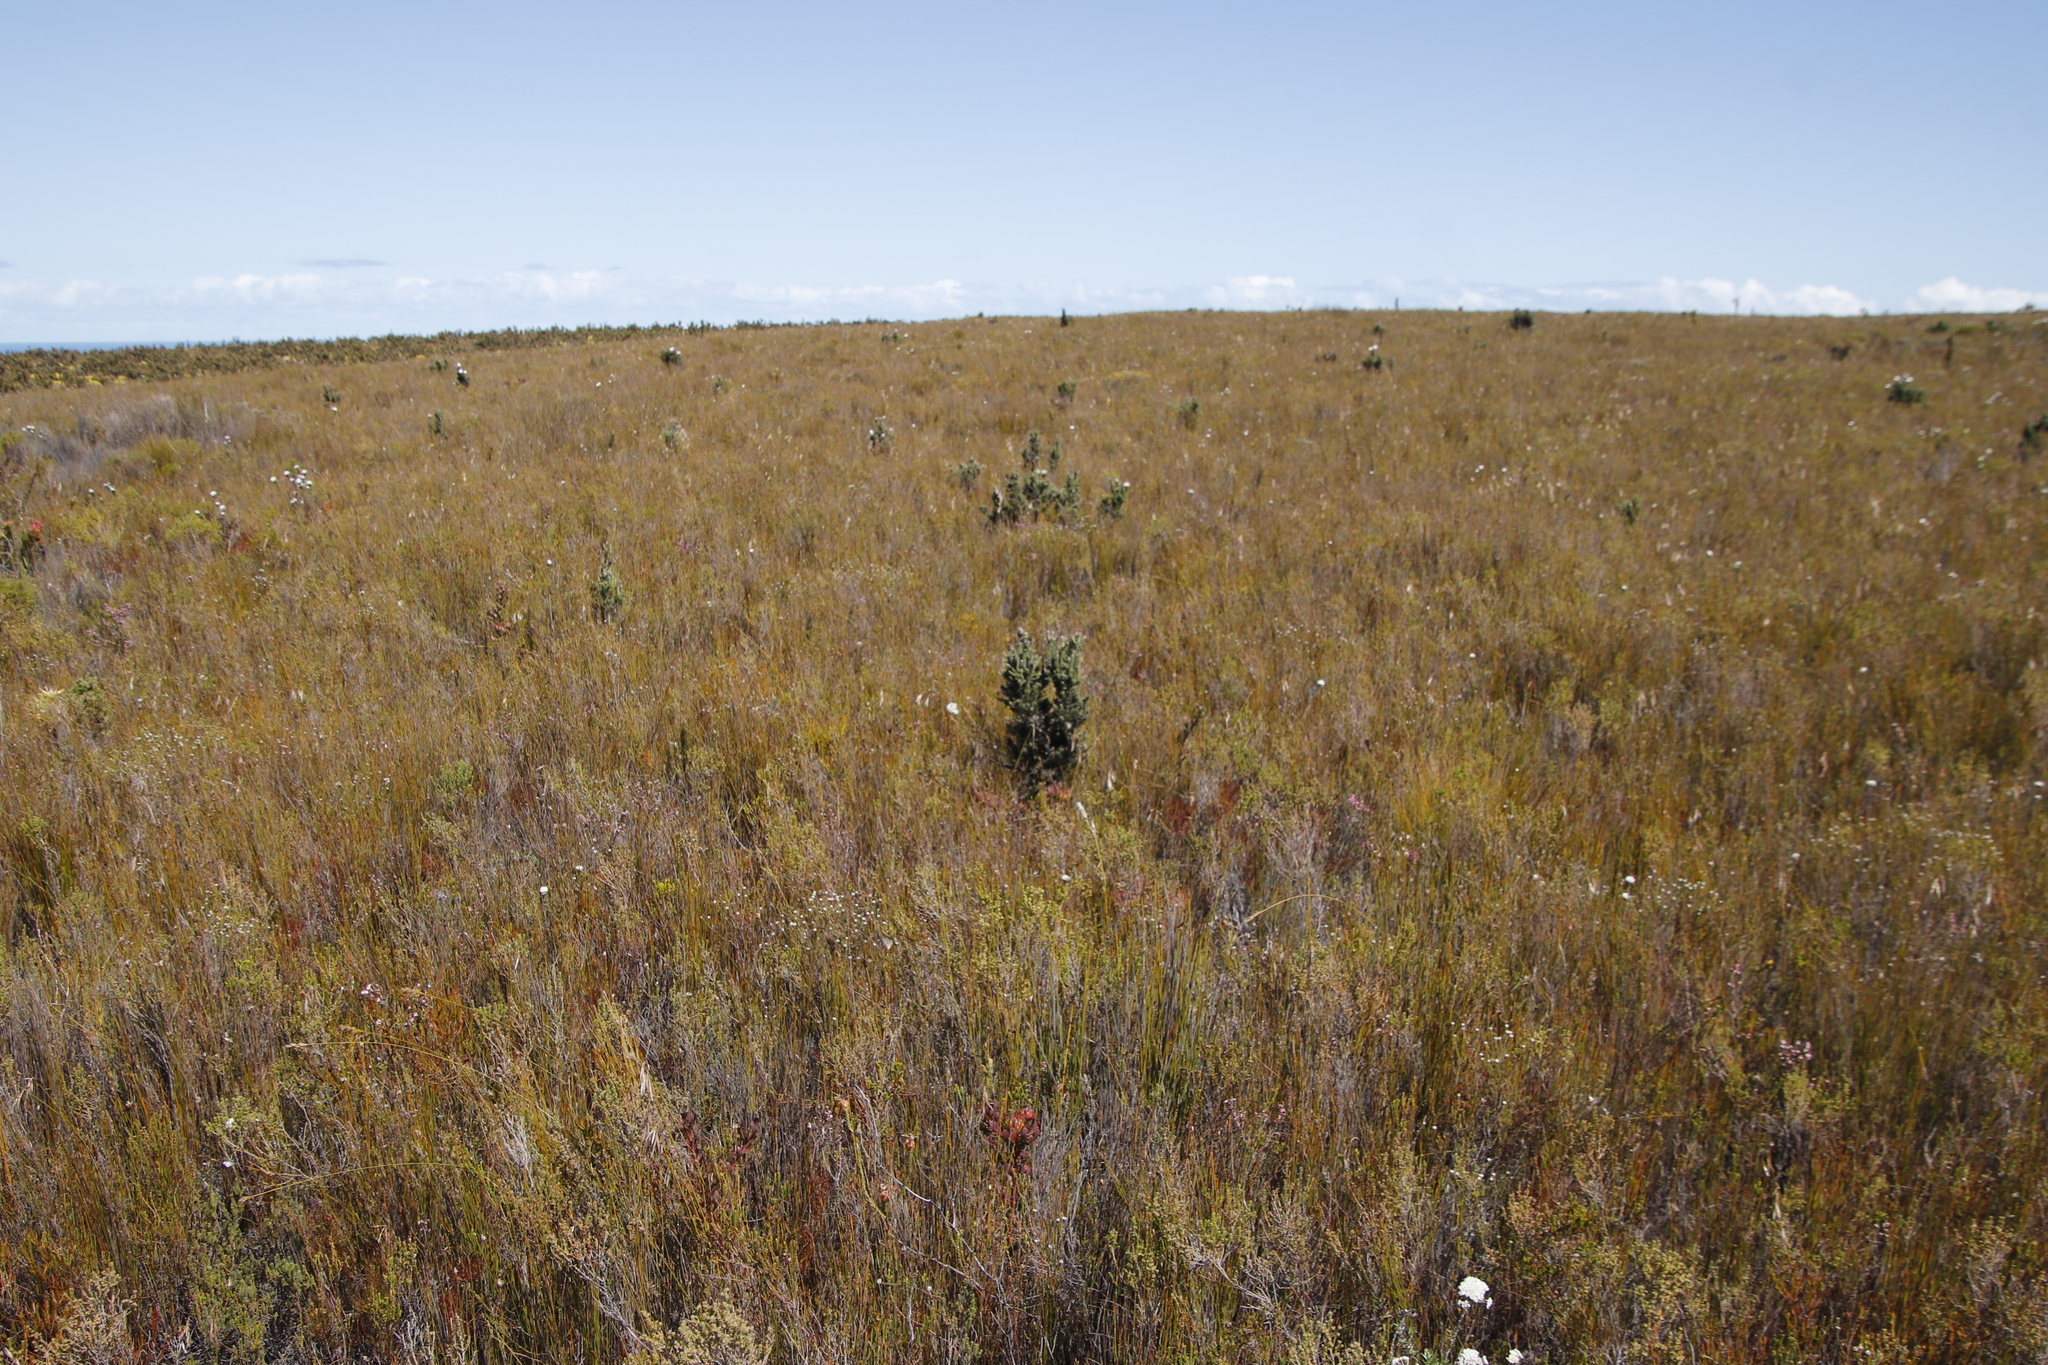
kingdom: Plantae
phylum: Tracheophyta
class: Magnoliopsida
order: Asterales
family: Asteraceae
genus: Phaenocoma
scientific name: Phaenocoma prolifera
